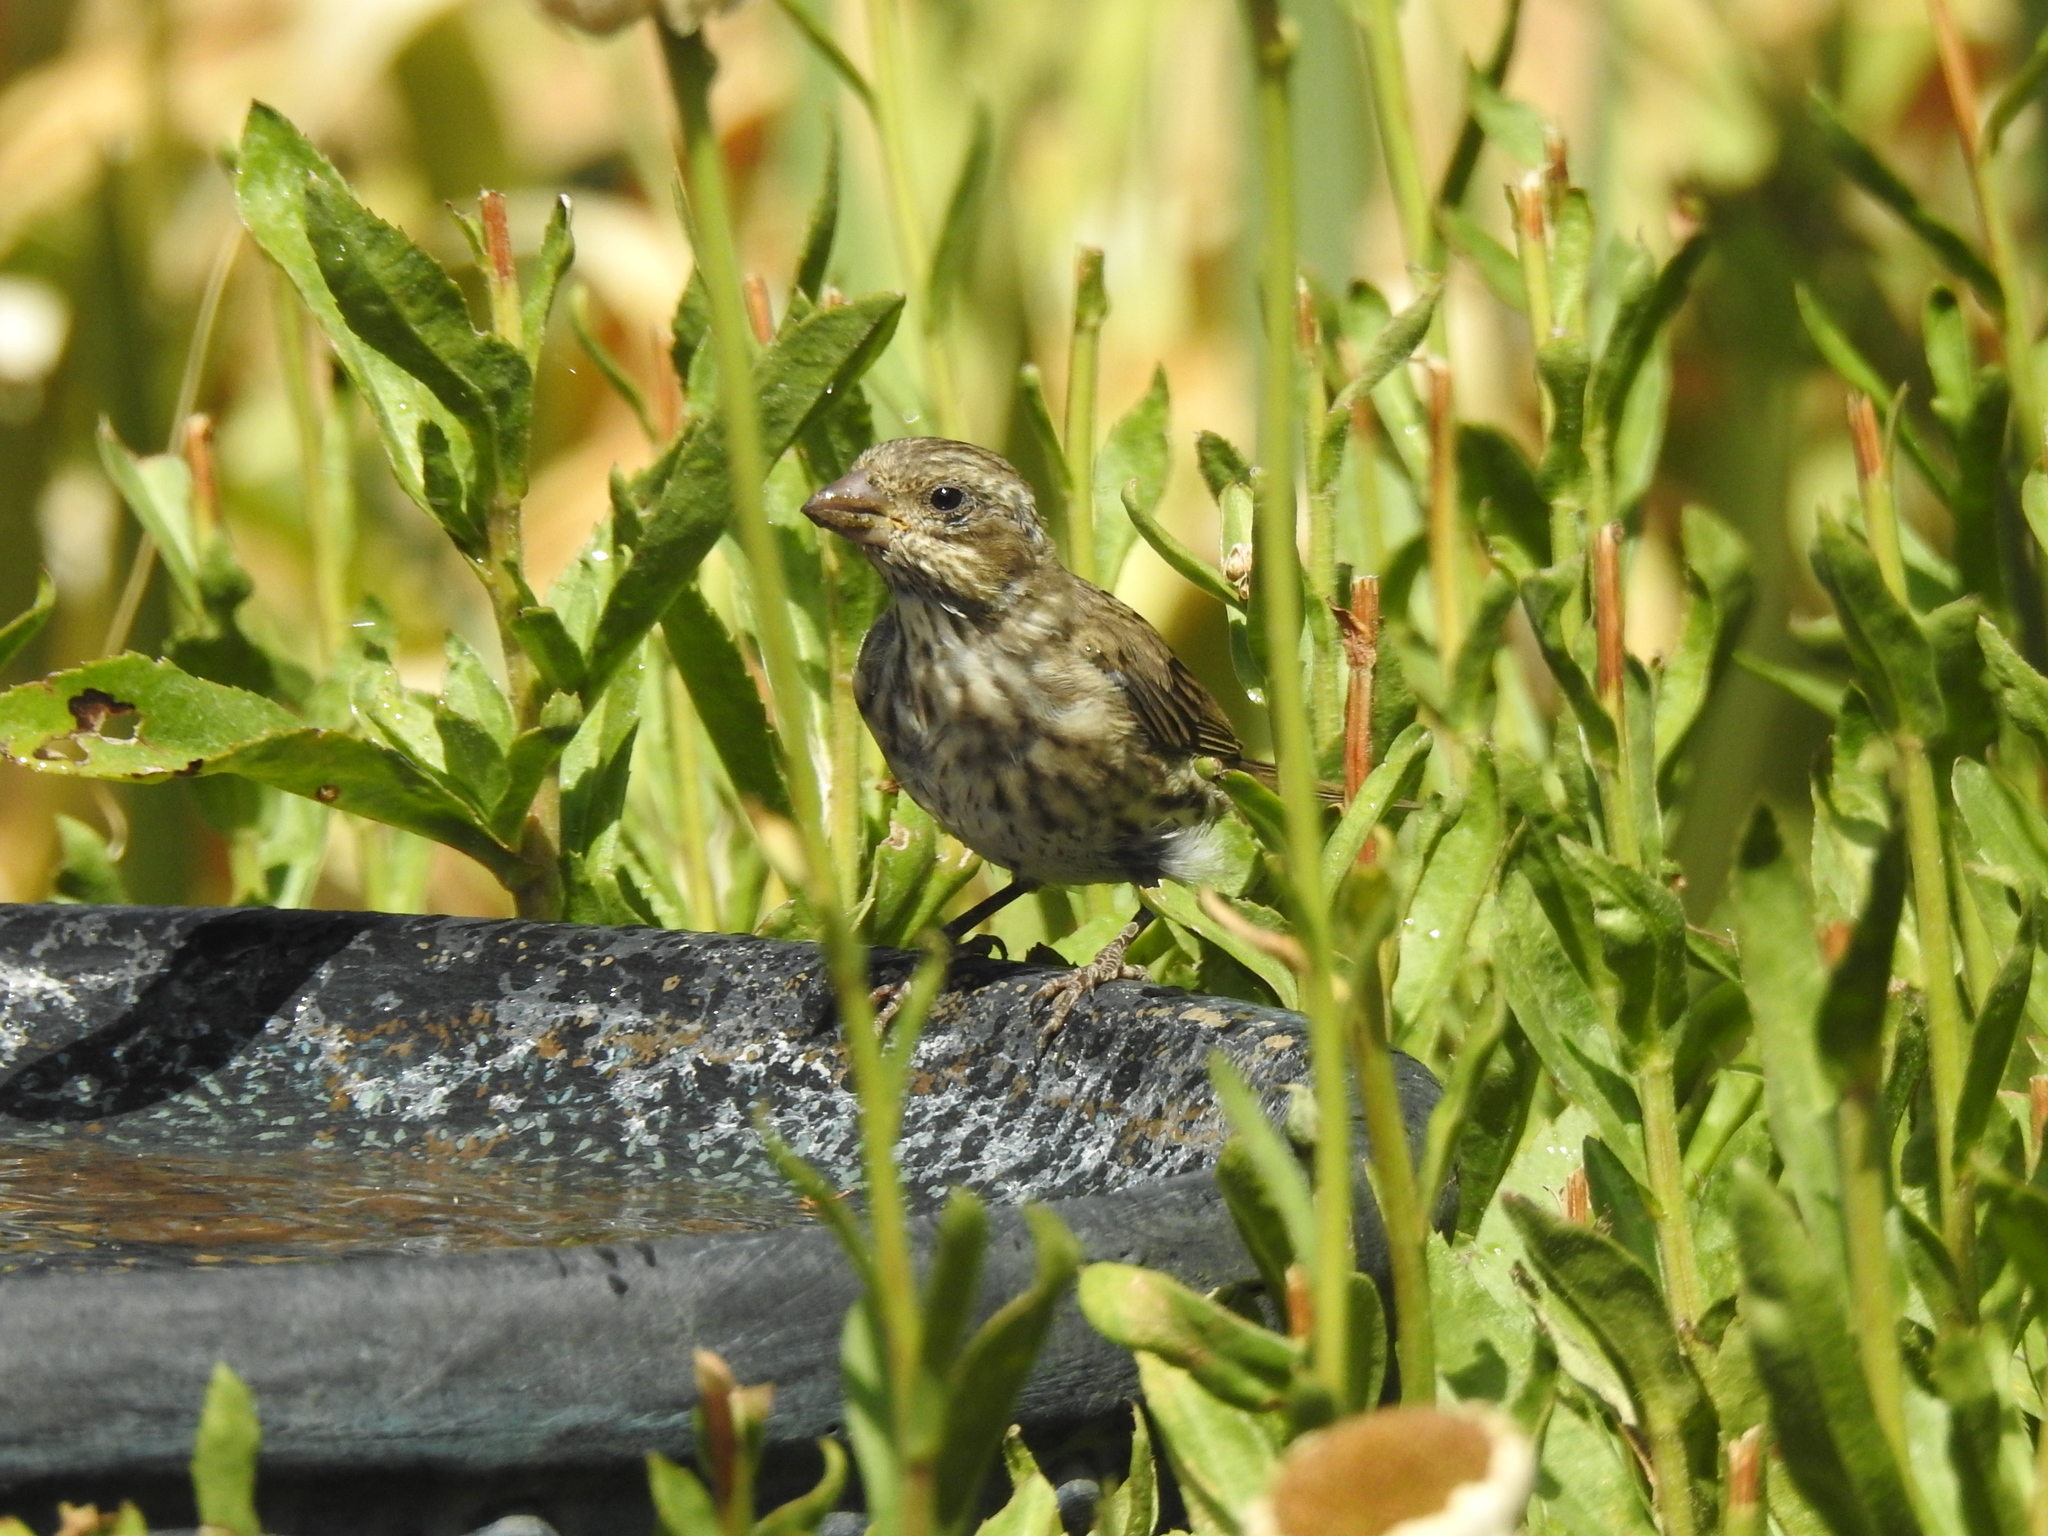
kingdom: Animalia
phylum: Chordata
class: Aves
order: Passeriformes
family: Fringillidae
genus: Haemorhous
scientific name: Haemorhous purpureus
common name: Purple finch
